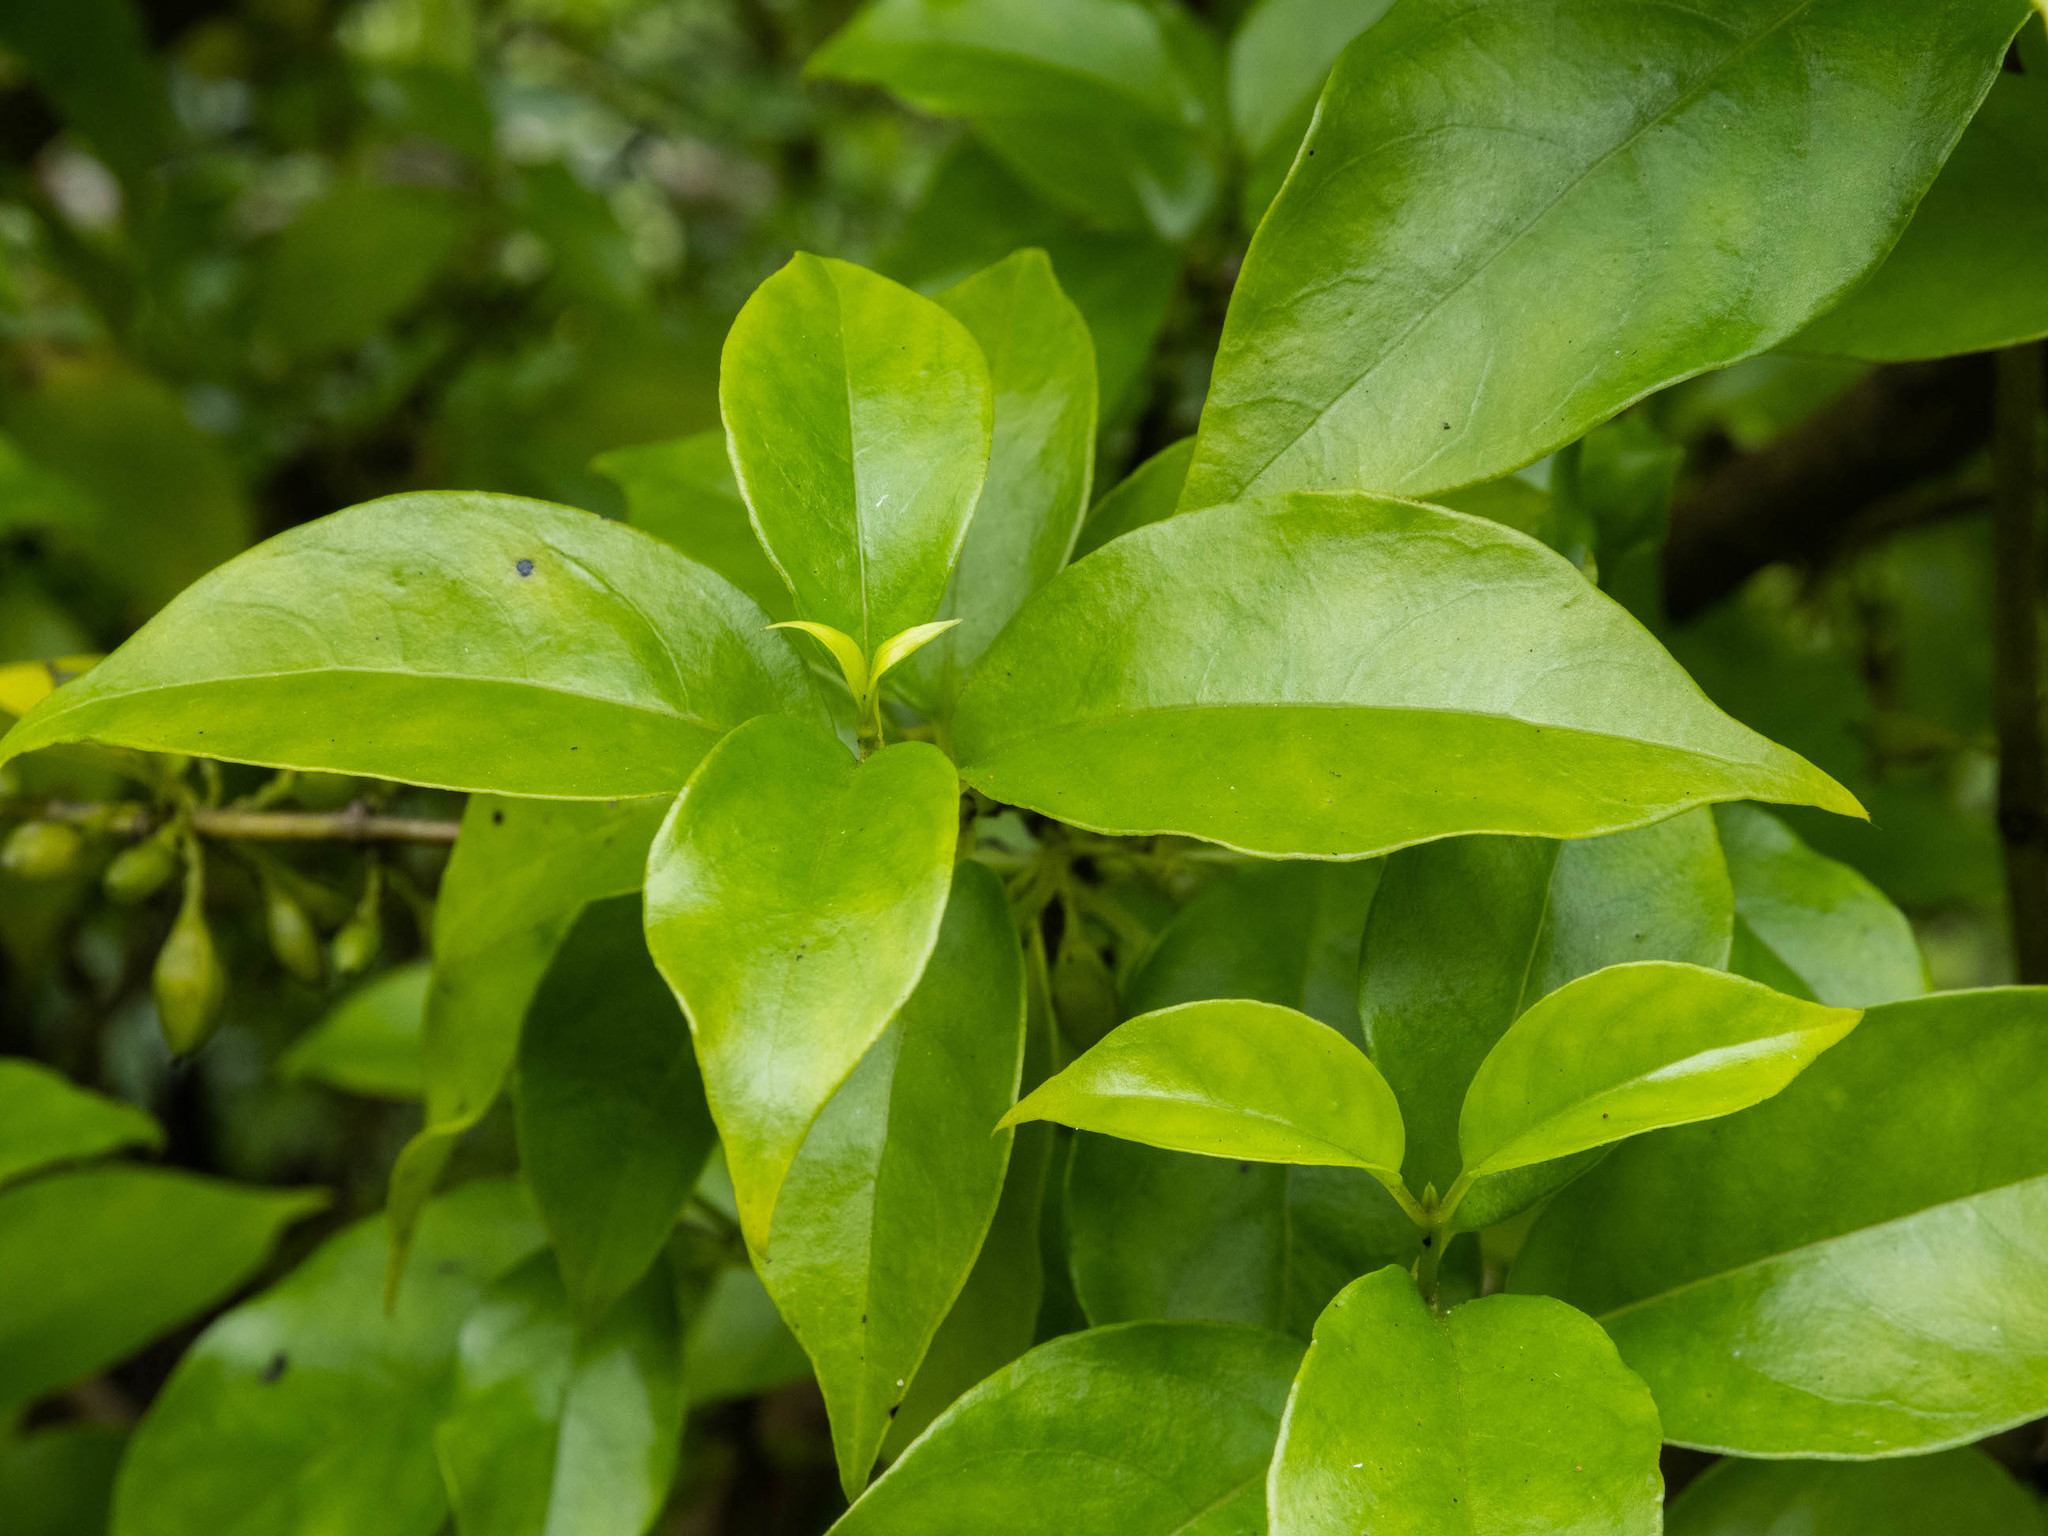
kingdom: Plantae
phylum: Tracheophyta
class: Magnoliopsida
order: Gentianales
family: Loganiaceae
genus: Geniostoma
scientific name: Geniostoma ligustrifolium
